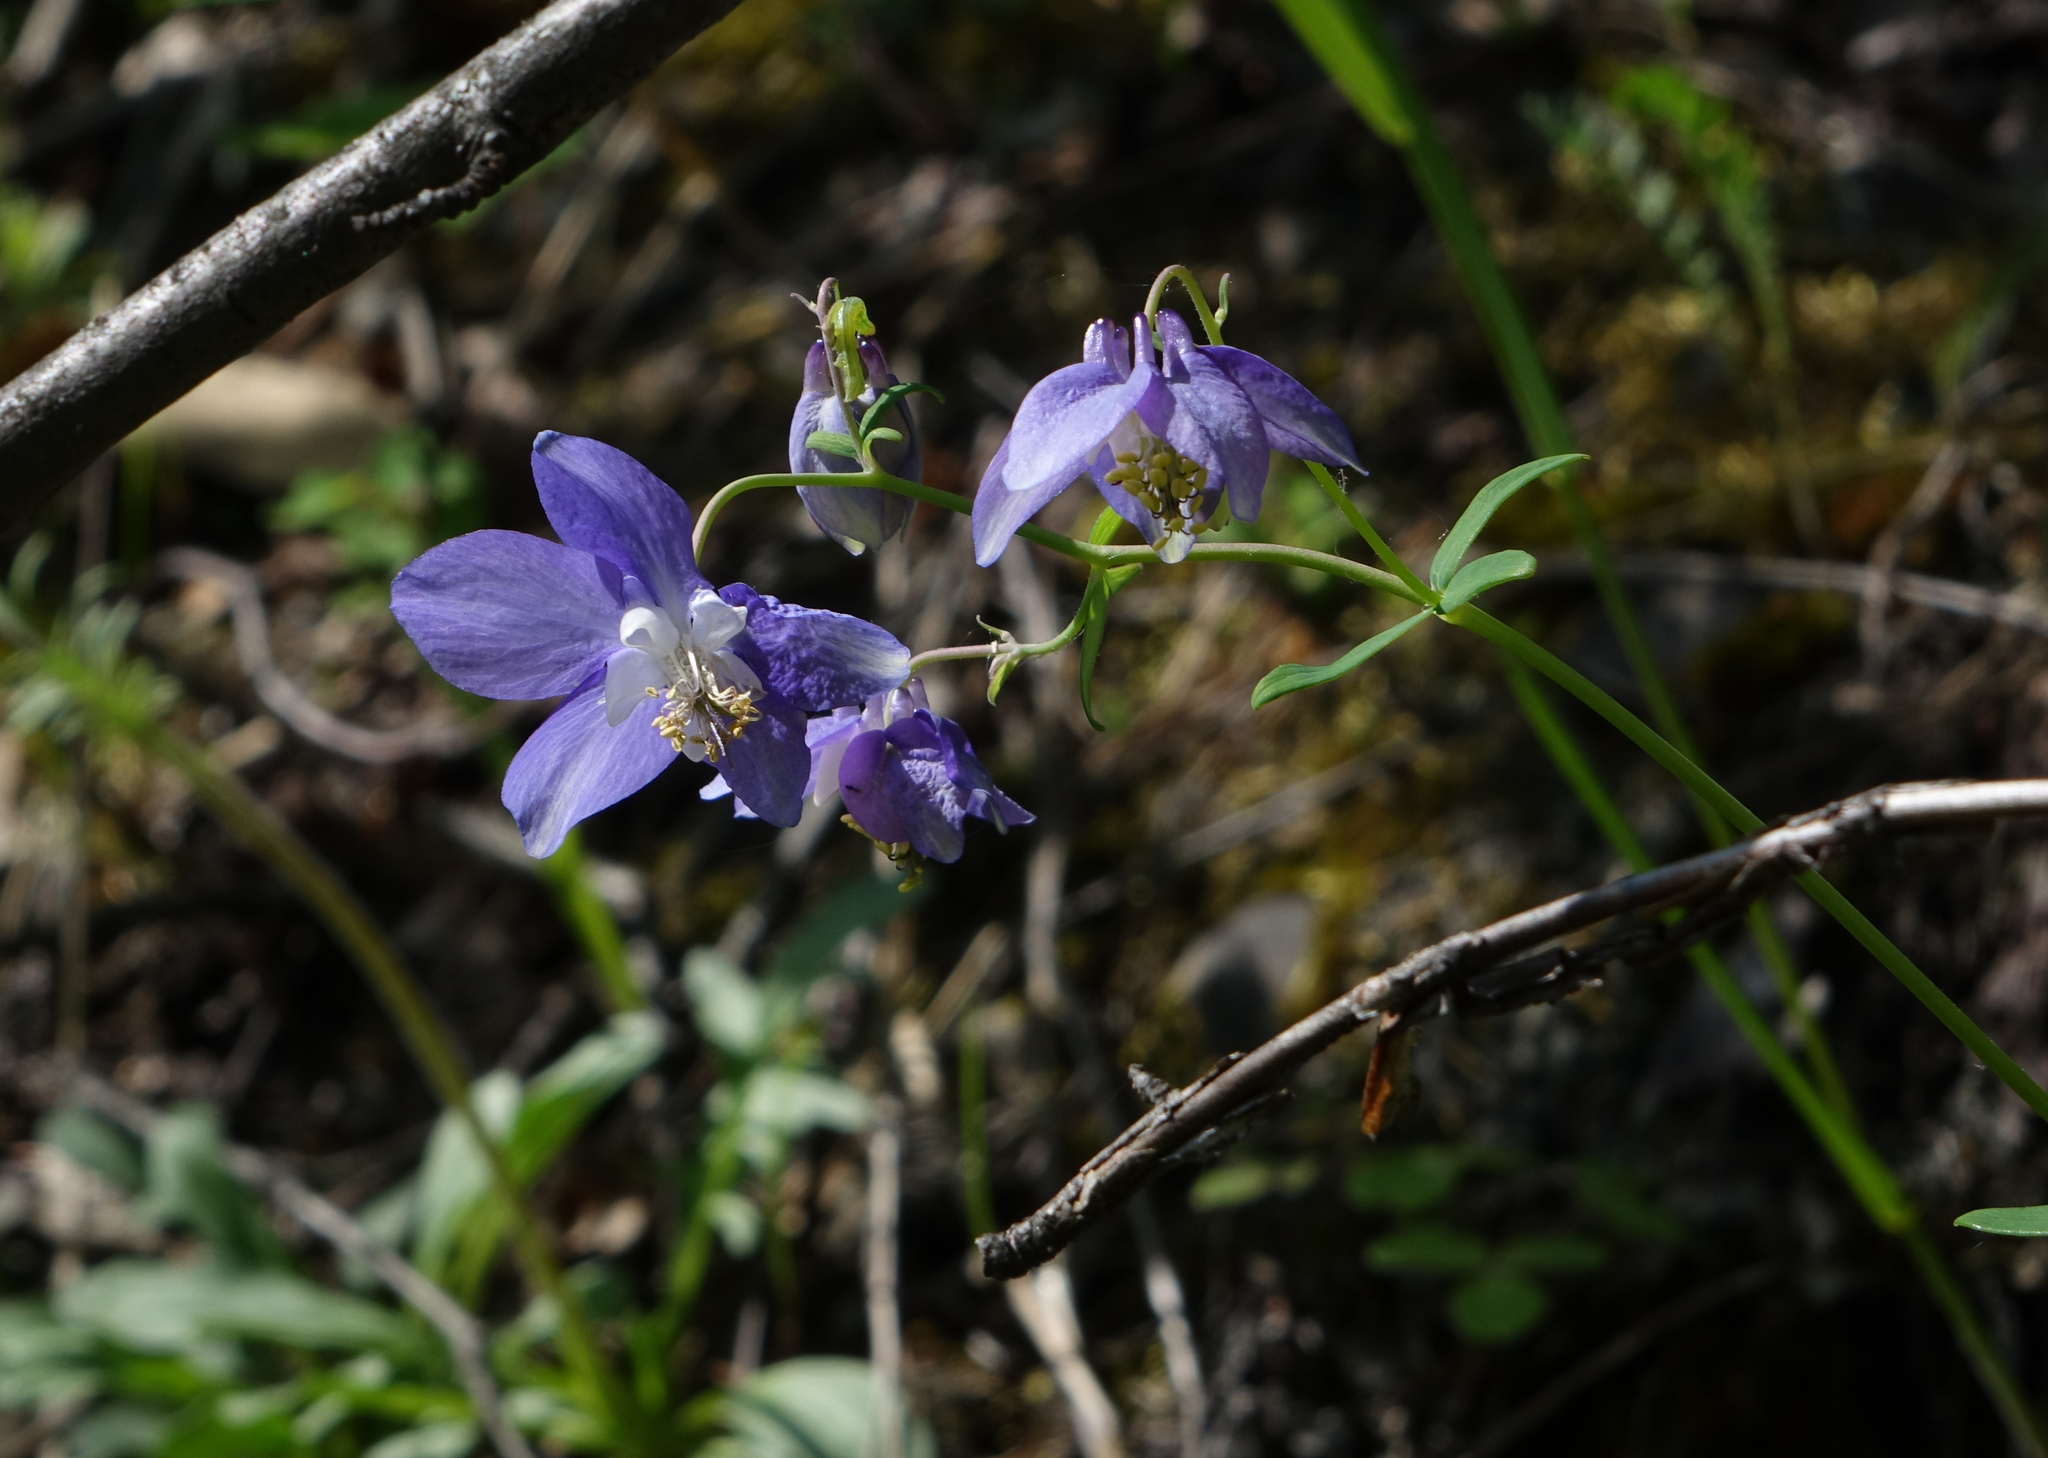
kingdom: Plantae
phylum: Tracheophyta
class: Magnoliopsida
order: Ranunculales
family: Ranunculaceae
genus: Aquilegia
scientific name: Aquilegia parviflora
